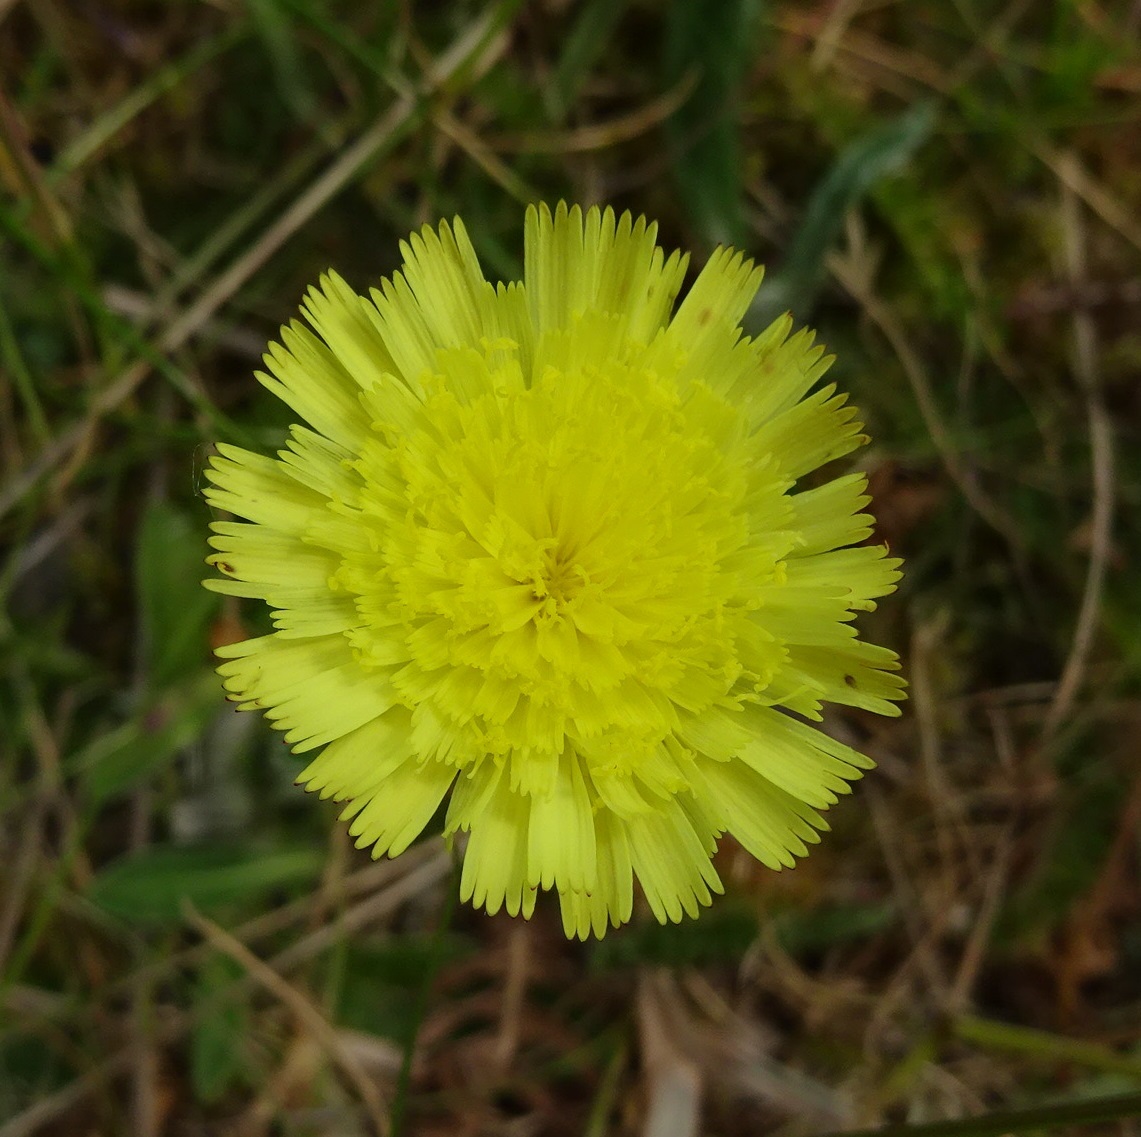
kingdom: Plantae
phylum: Tracheophyta
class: Magnoliopsida
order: Asterales
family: Asteraceae
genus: Pilosella
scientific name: Pilosella officinarum
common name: Mouse-ear hawkweed
